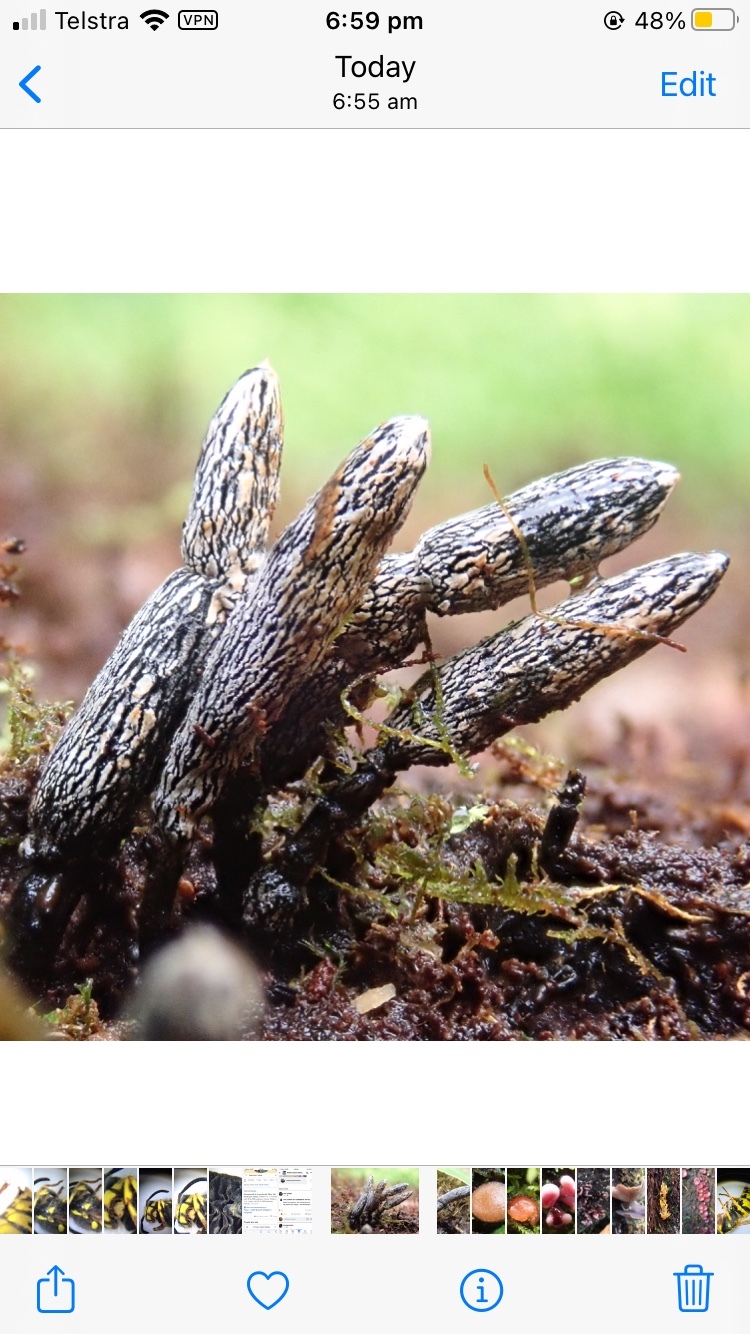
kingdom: Fungi
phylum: Ascomycota
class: Sordariomycetes
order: Xylariales
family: Xylariaceae
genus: Xylaria
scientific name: Xylaria castorea
